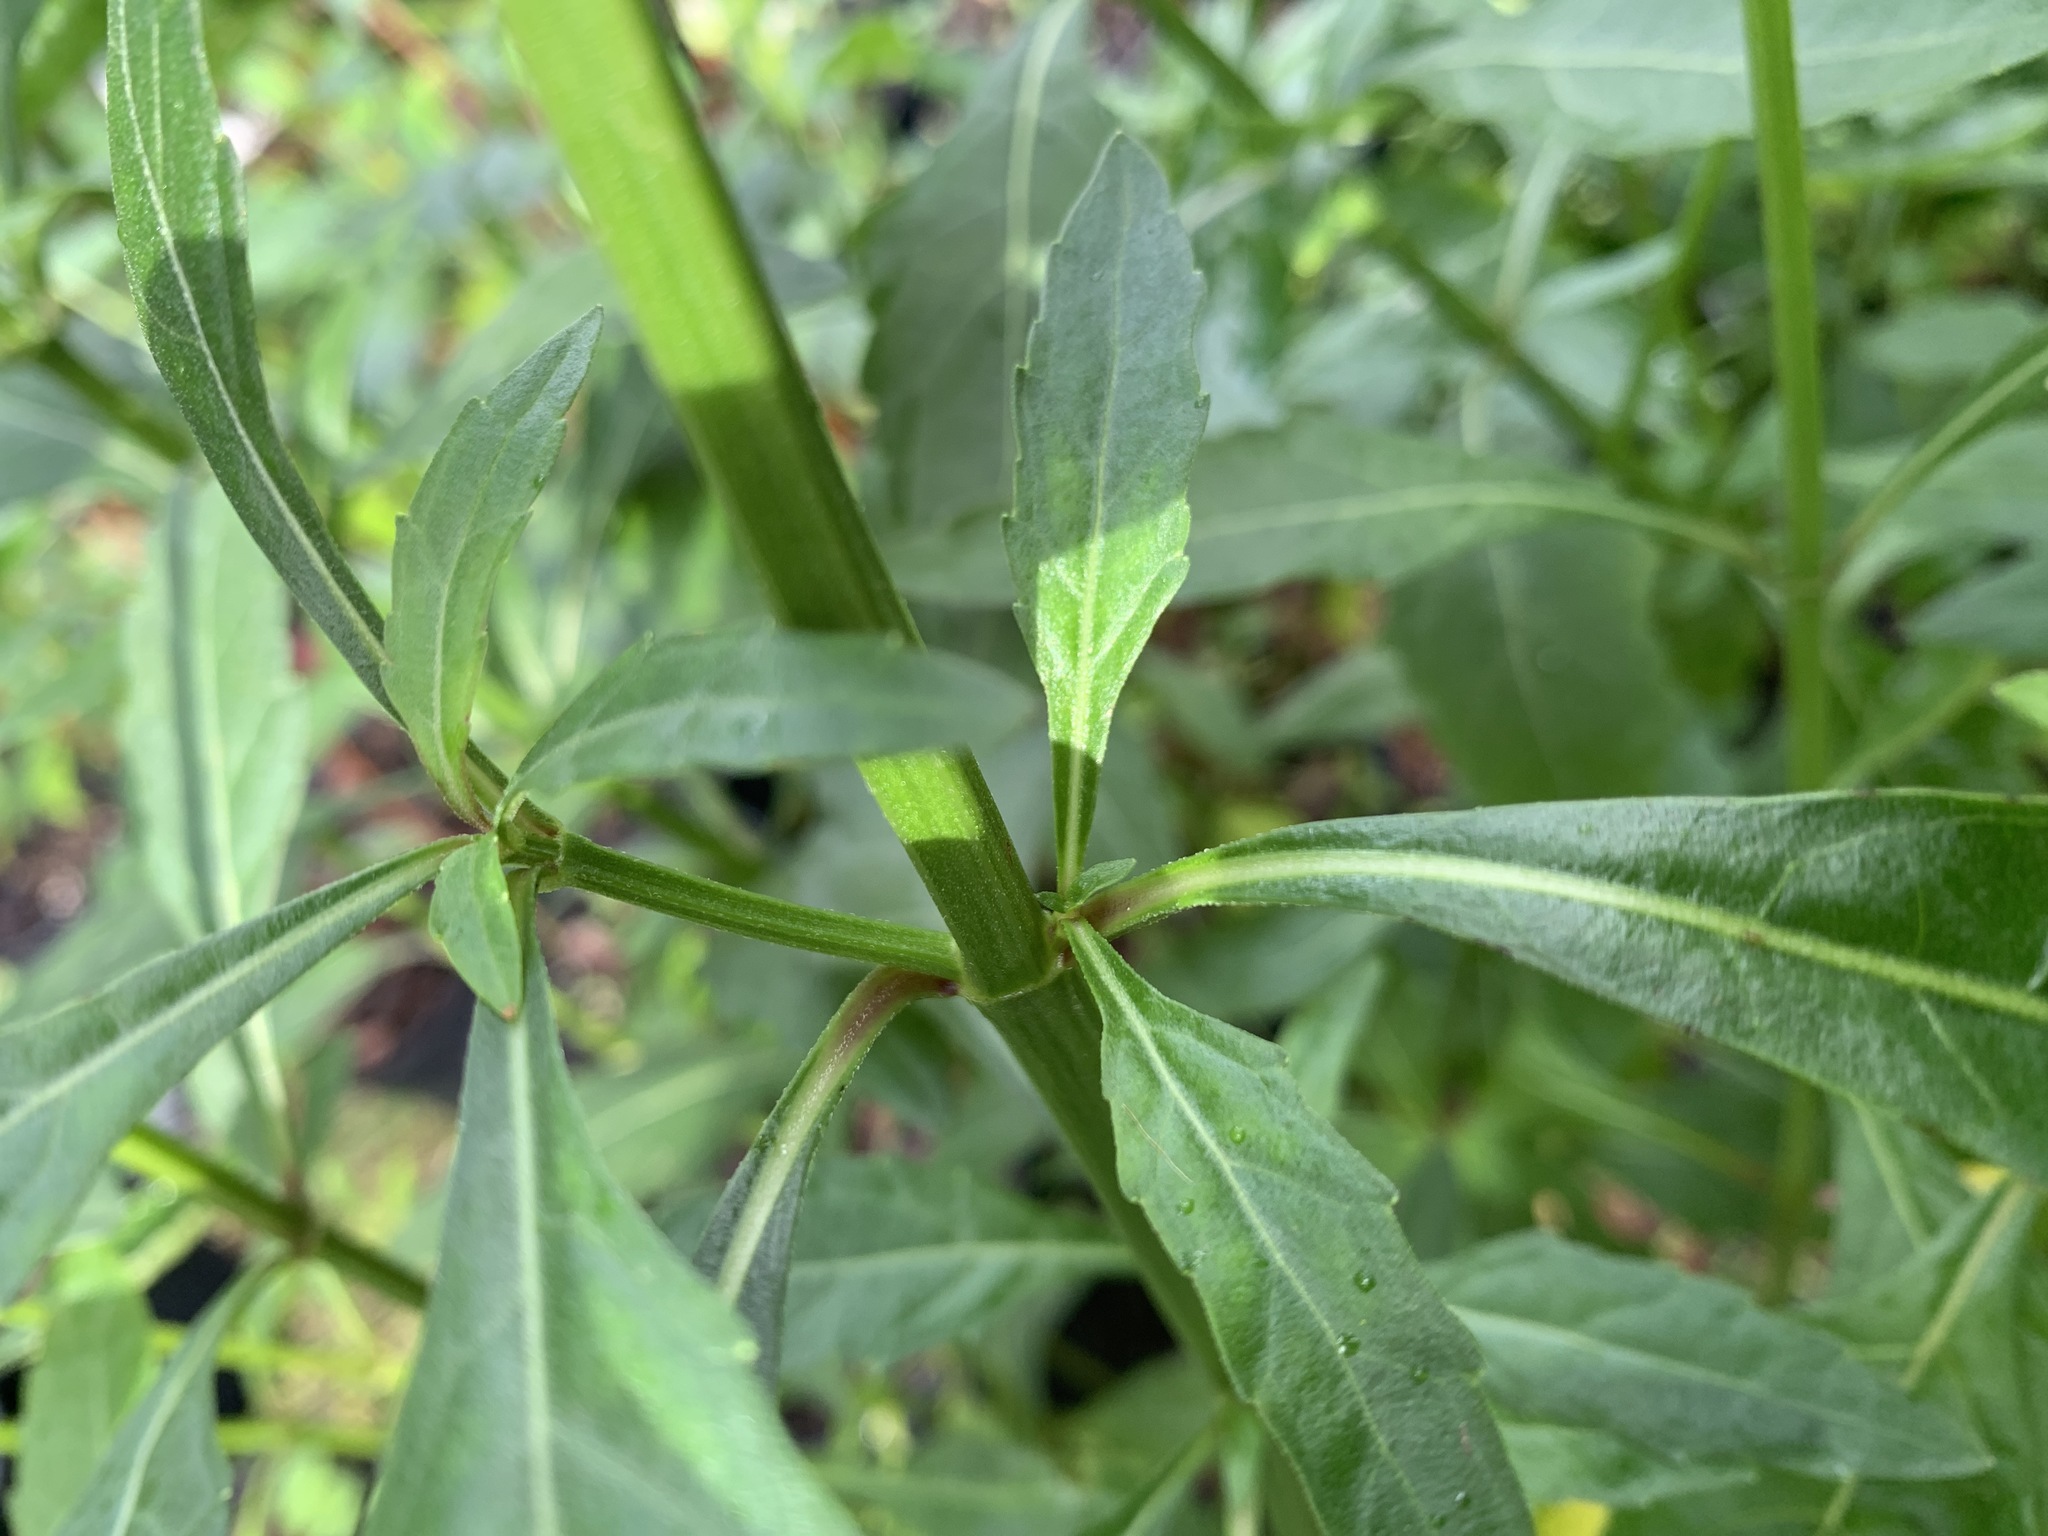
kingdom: Plantae
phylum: Tracheophyta
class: Magnoliopsida
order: Lamiales
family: Lamiaceae
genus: Hyptis
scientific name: Hyptis alata
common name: Cluster bush-mint
